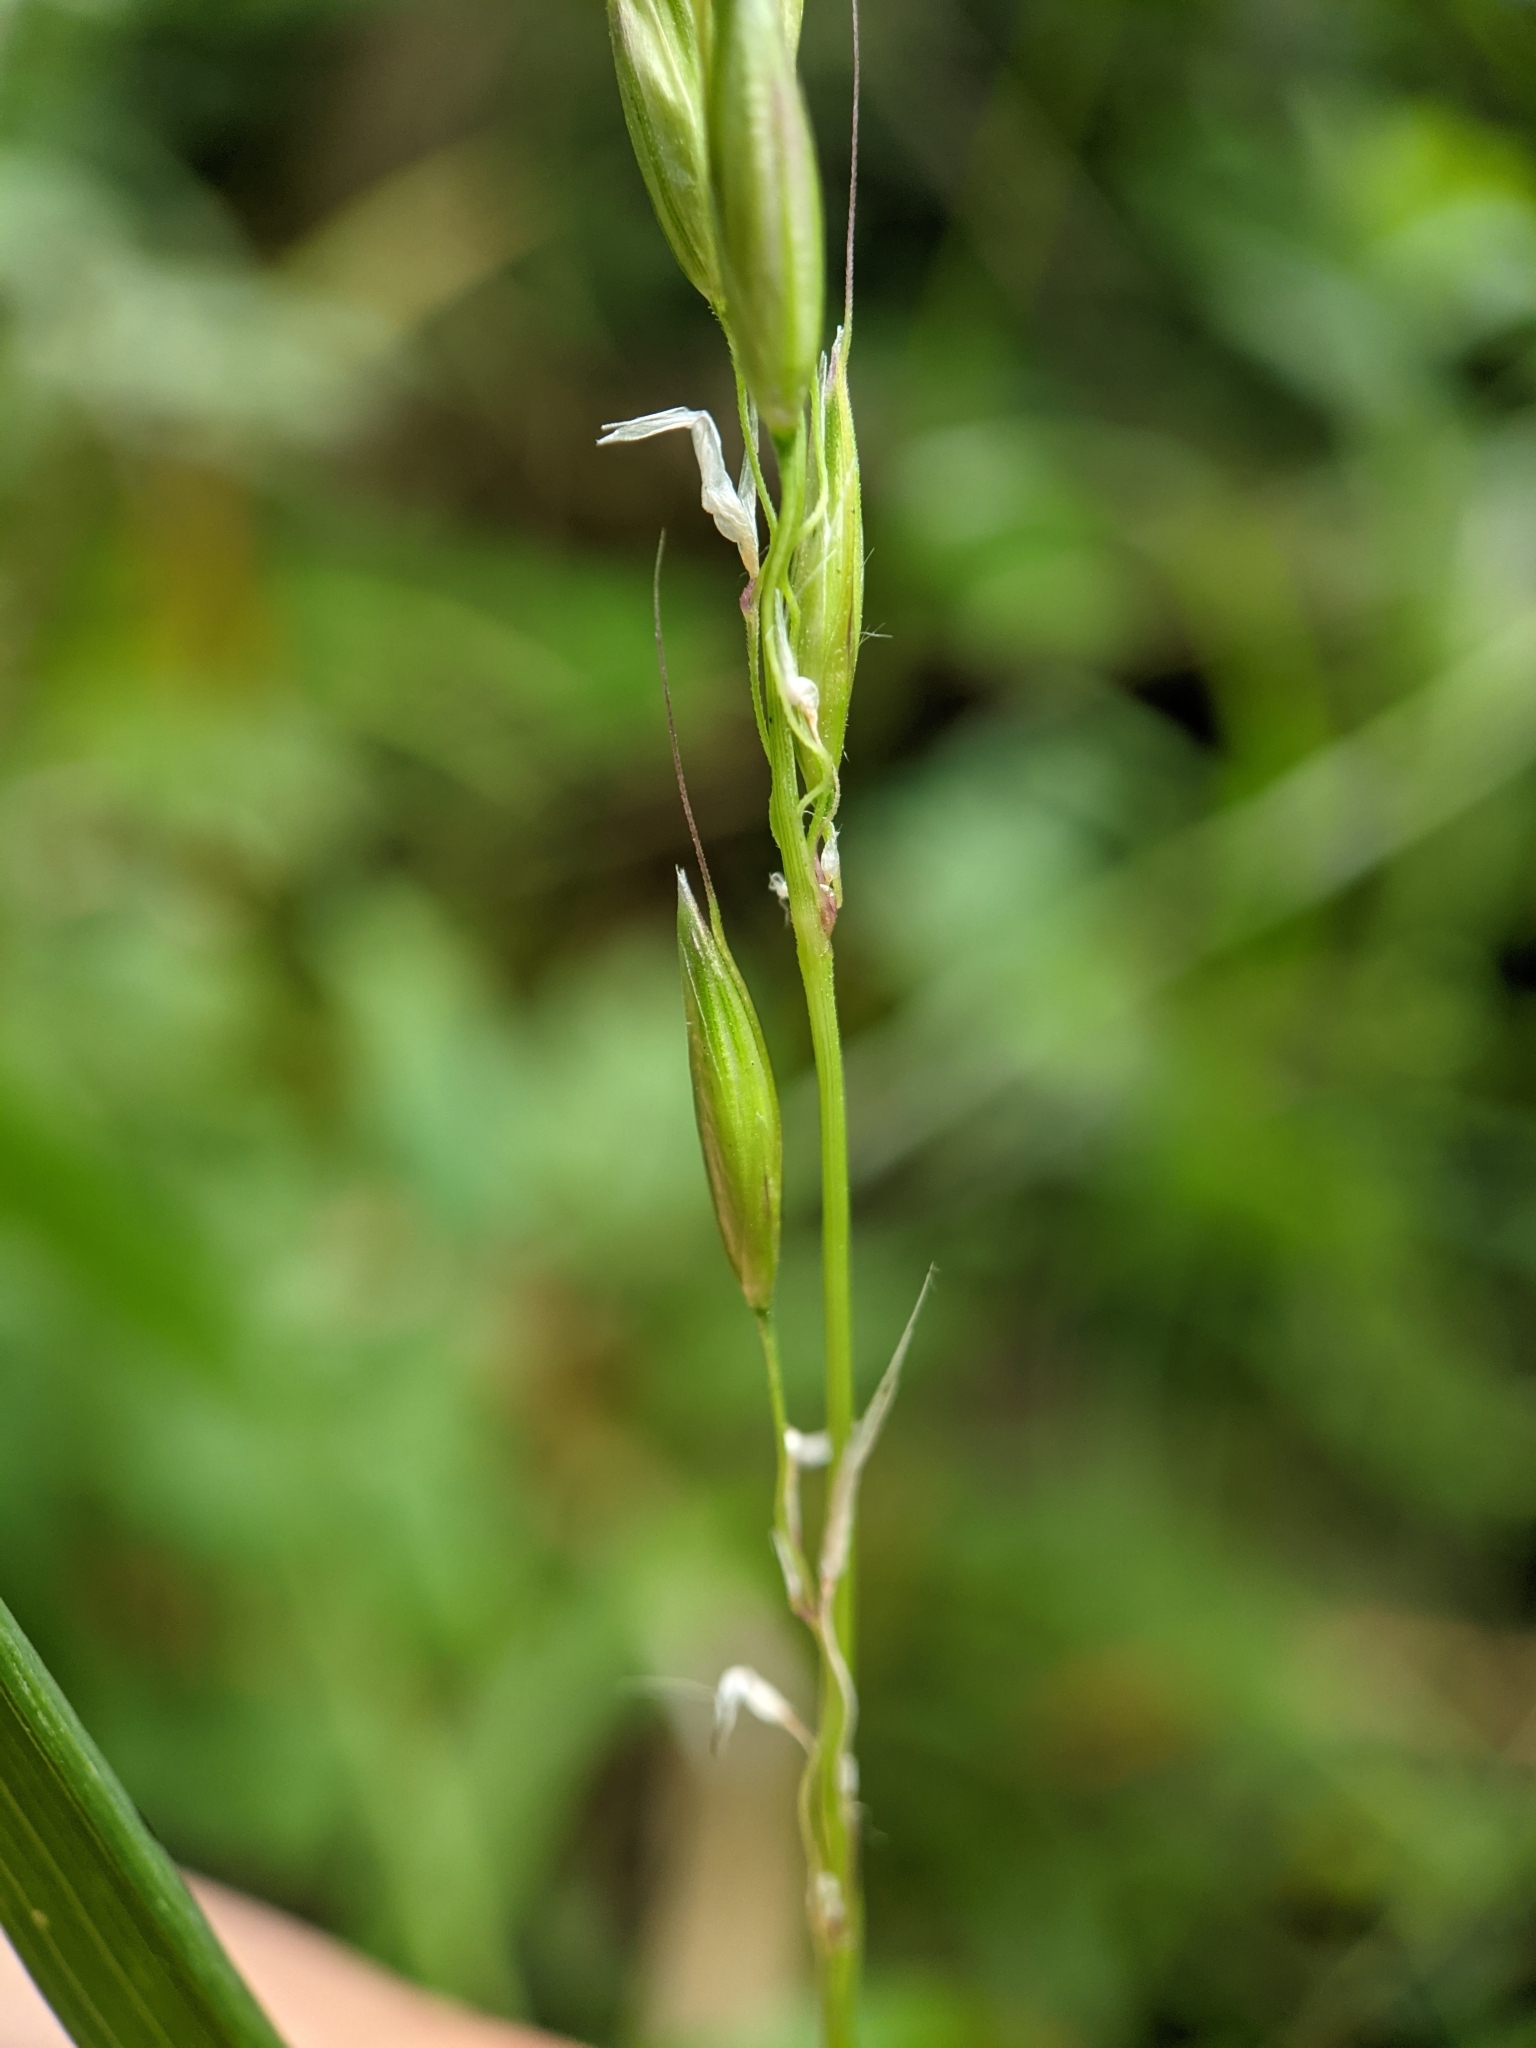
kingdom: Plantae
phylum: Tracheophyta
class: Liliopsida
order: Poales
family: Poaceae
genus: Arrhenatherum
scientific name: Arrhenatherum elatius
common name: Tall oatgrass
